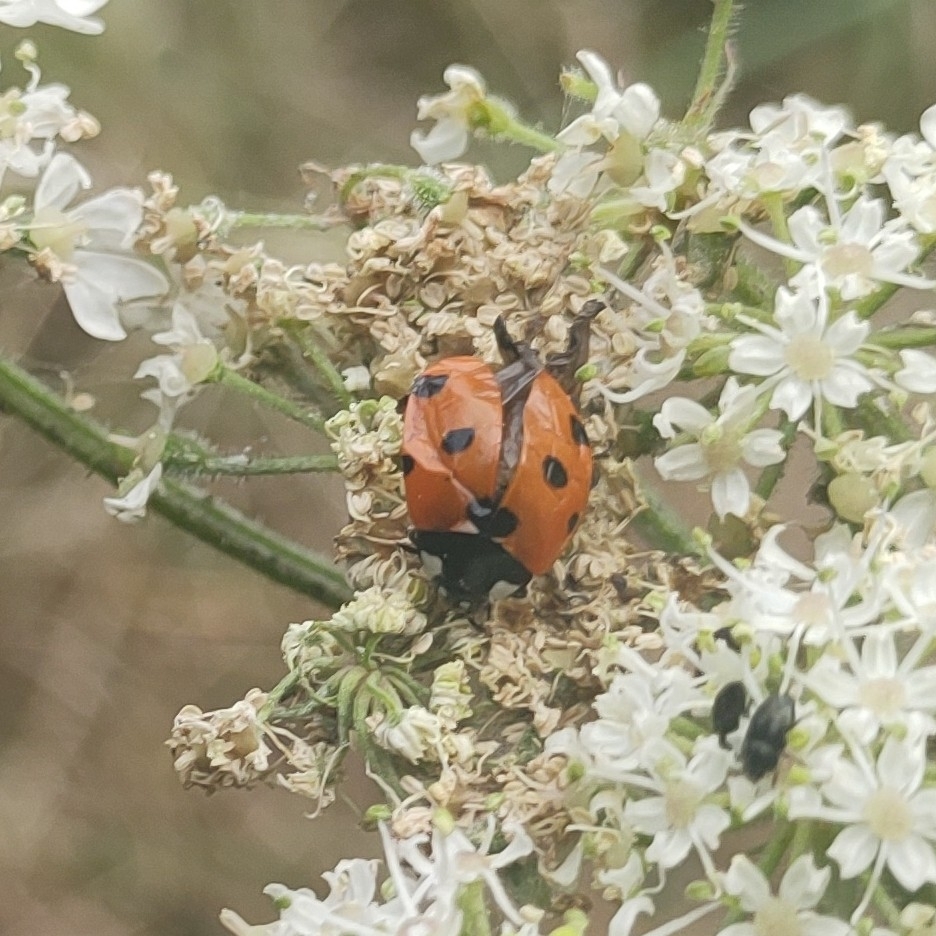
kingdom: Animalia
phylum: Arthropoda
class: Insecta
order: Coleoptera
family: Coccinellidae
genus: Coccinella
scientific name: Coccinella septempunctata
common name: Sevenspotted lady beetle
